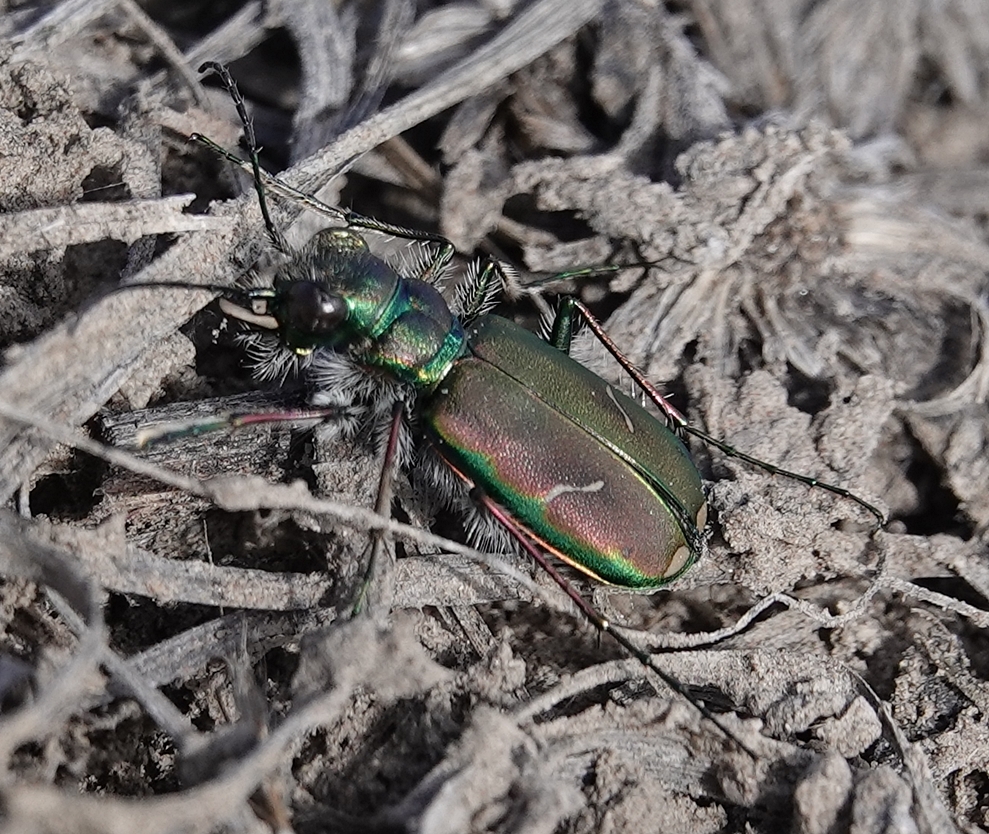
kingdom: Animalia
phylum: Arthropoda
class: Insecta
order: Coleoptera
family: Carabidae
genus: Cicindela
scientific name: Cicindela purpurea
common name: Cow path tiger beetle
